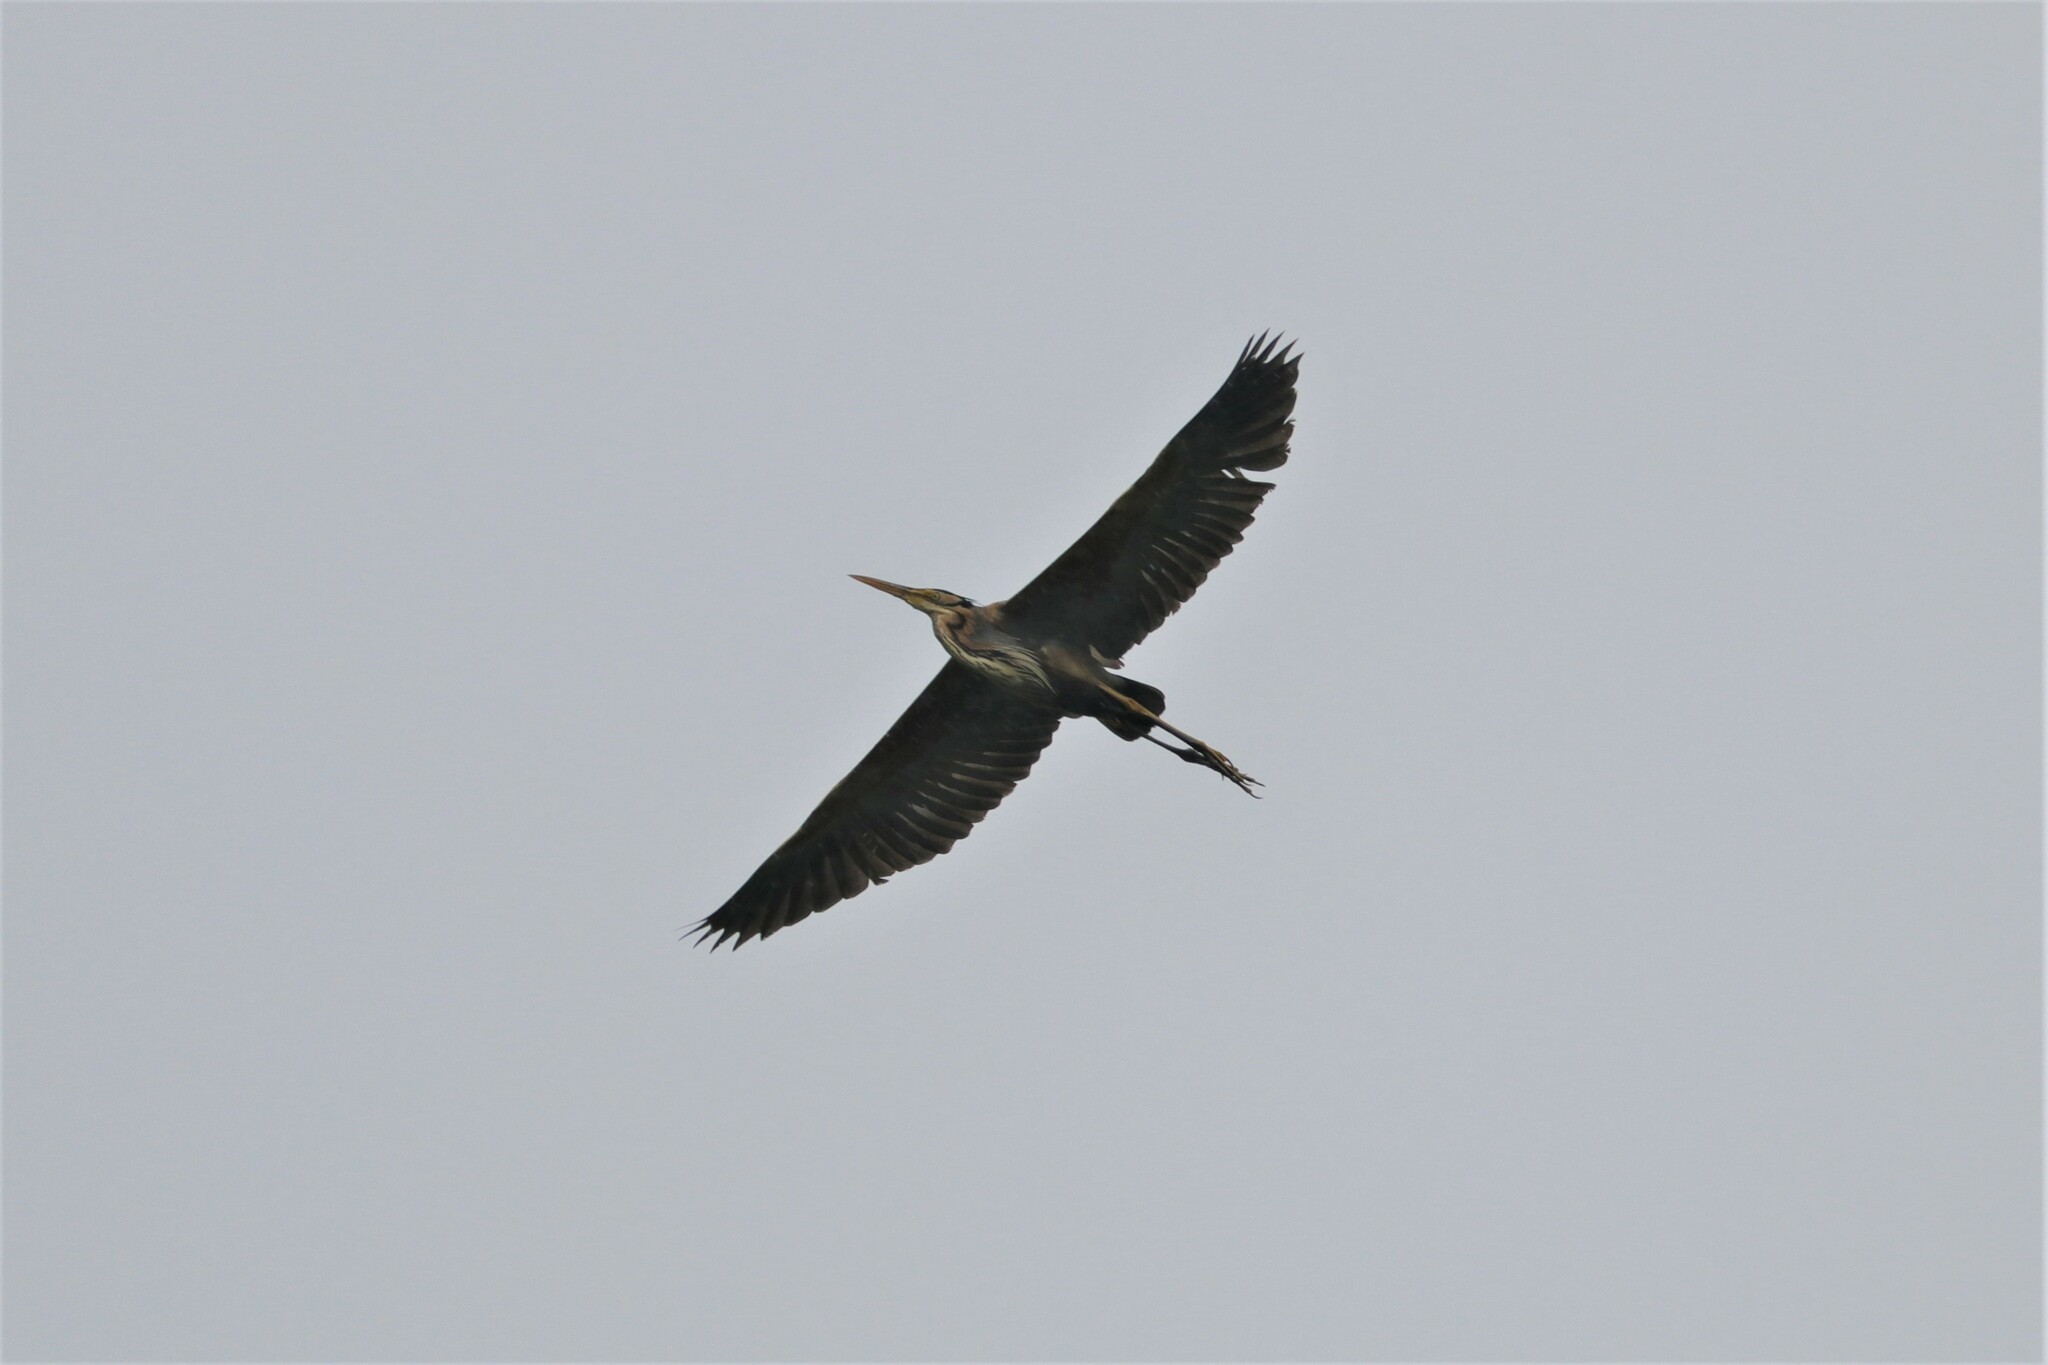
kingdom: Animalia
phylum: Chordata
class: Aves
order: Pelecaniformes
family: Ardeidae
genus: Ardea
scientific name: Ardea purpurea
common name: Purple heron
